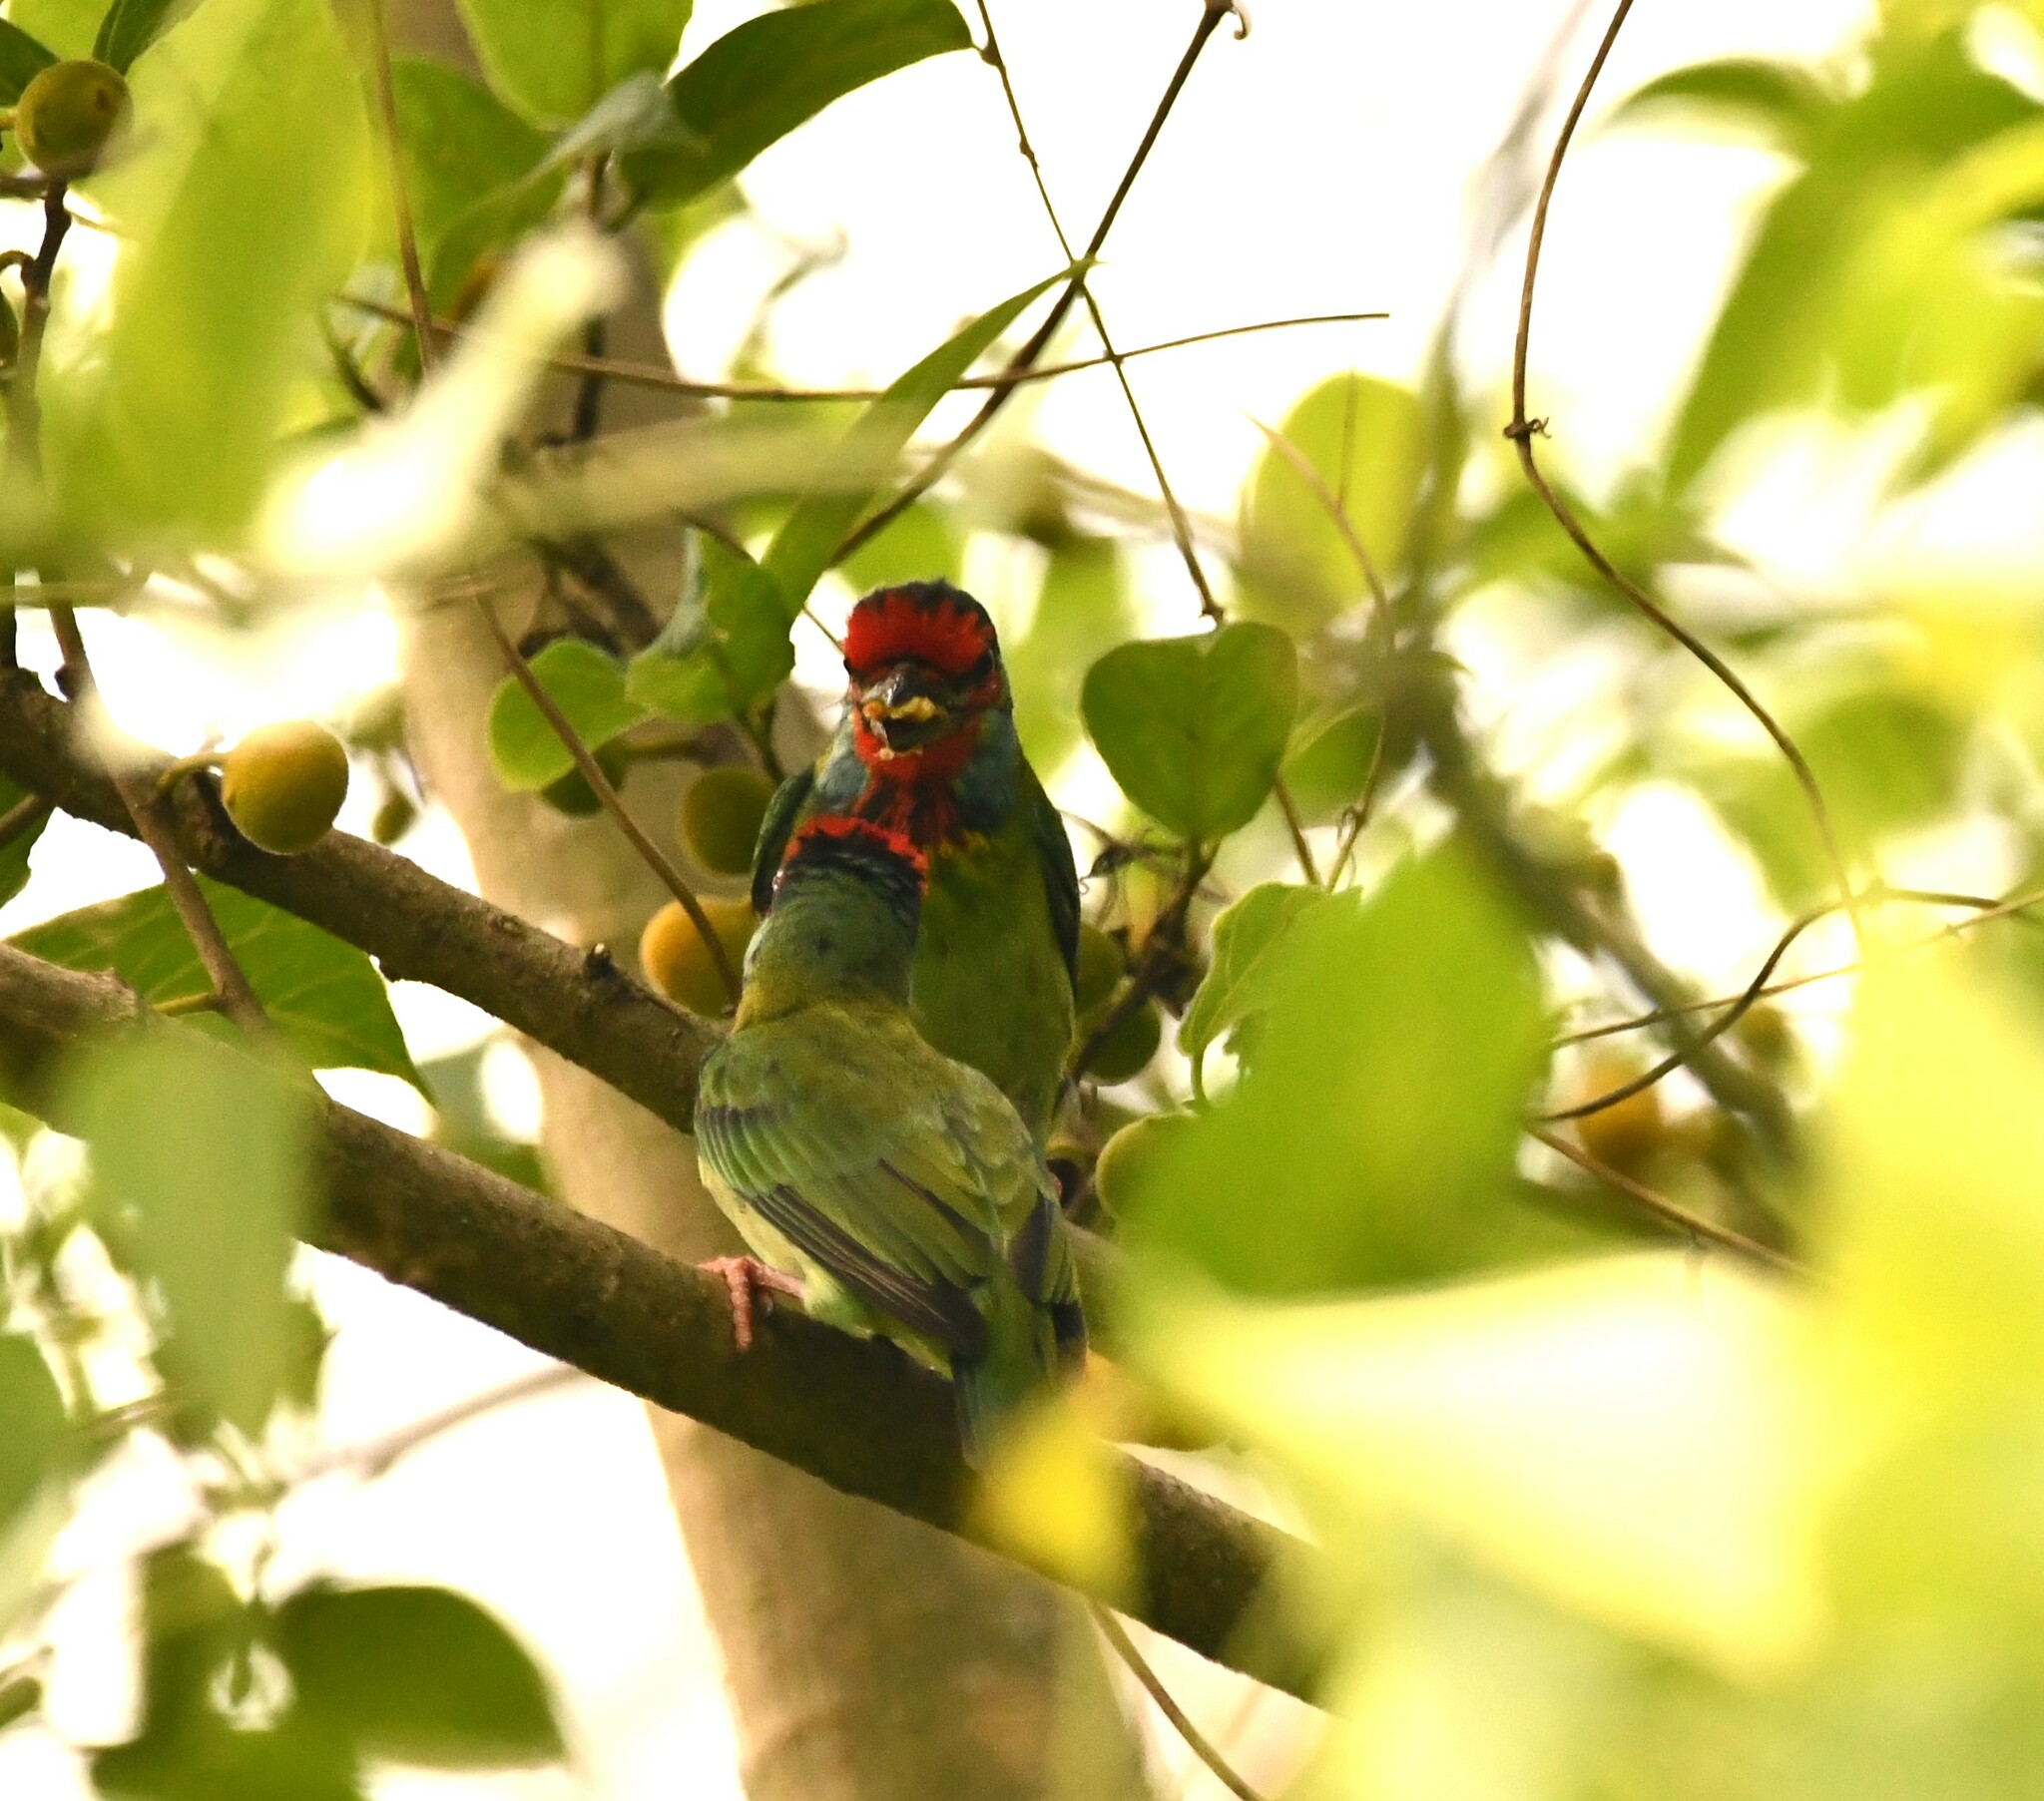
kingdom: Animalia
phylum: Chordata
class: Aves
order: Piciformes
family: Megalaimidae
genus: Psilopogon
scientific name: Psilopogon malabaricus
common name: Malabar barbet
